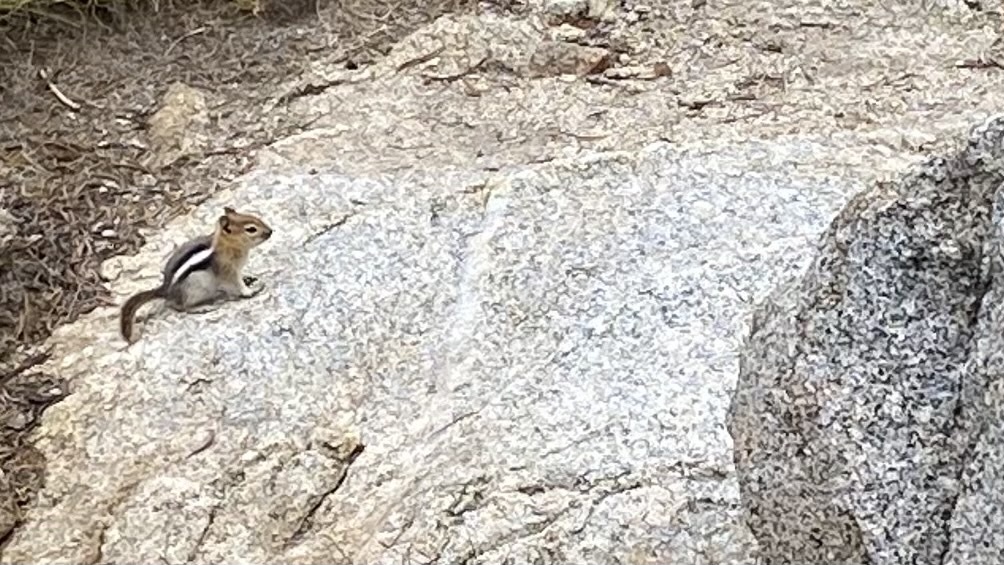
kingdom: Animalia
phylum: Chordata
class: Mammalia
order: Rodentia
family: Sciuridae
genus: Callospermophilus
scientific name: Callospermophilus lateralis
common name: Golden-mantled ground squirrel
